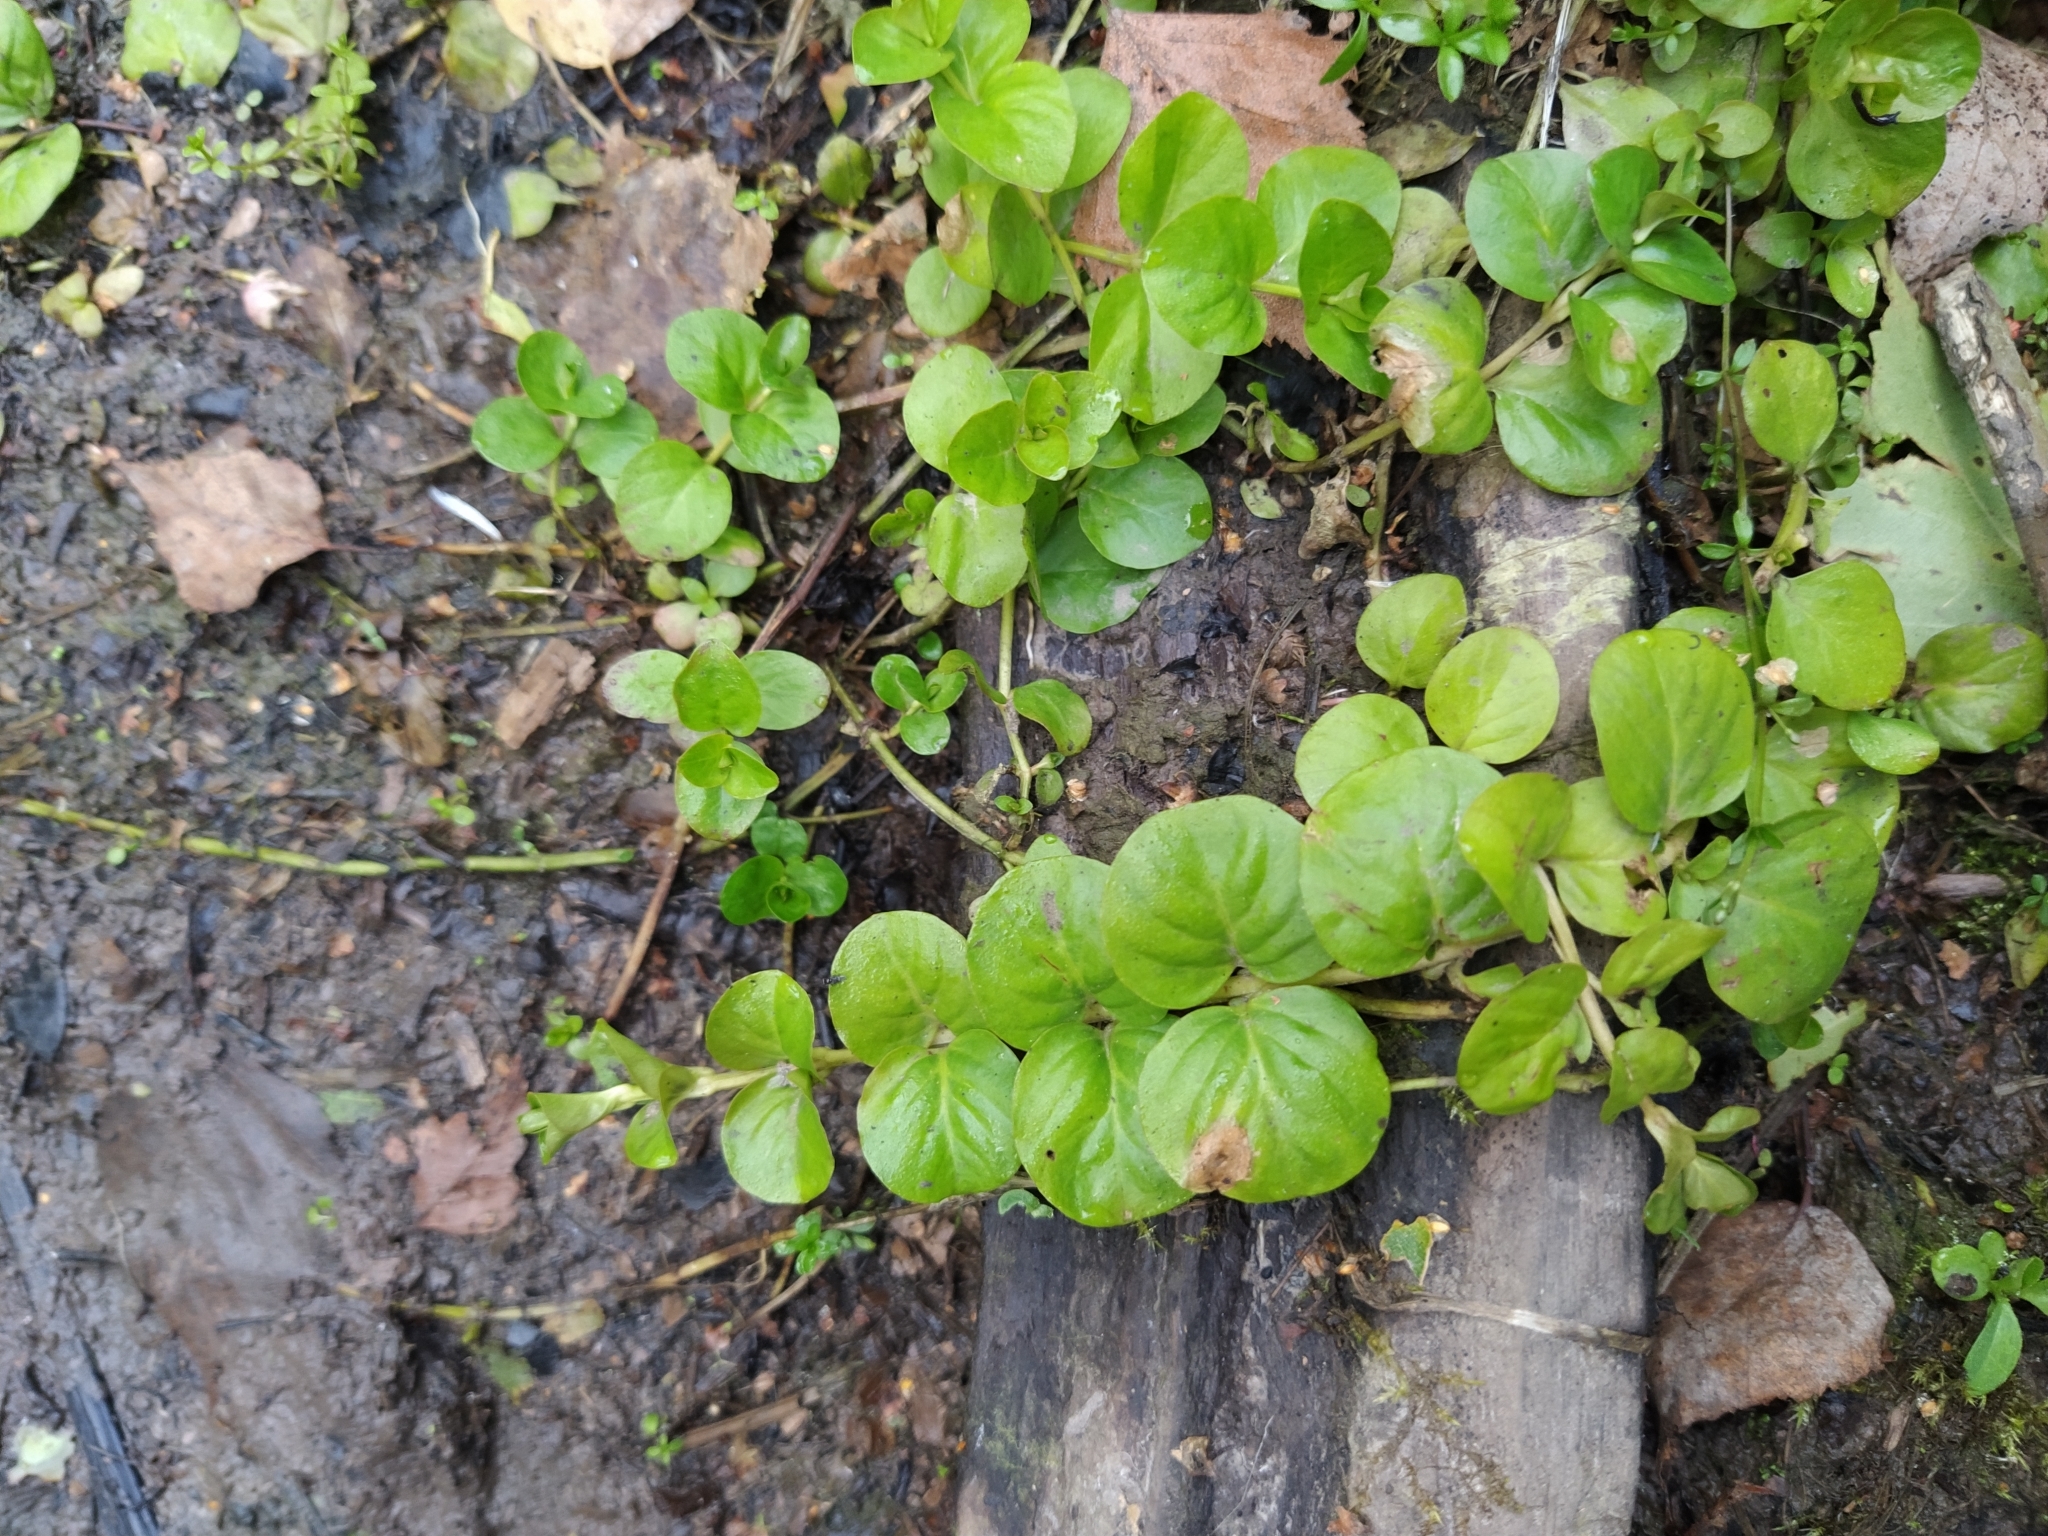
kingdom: Plantae
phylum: Tracheophyta
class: Magnoliopsida
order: Ericales
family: Primulaceae
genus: Lysimachia
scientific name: Lysimachia nummularia
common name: Moneywort
